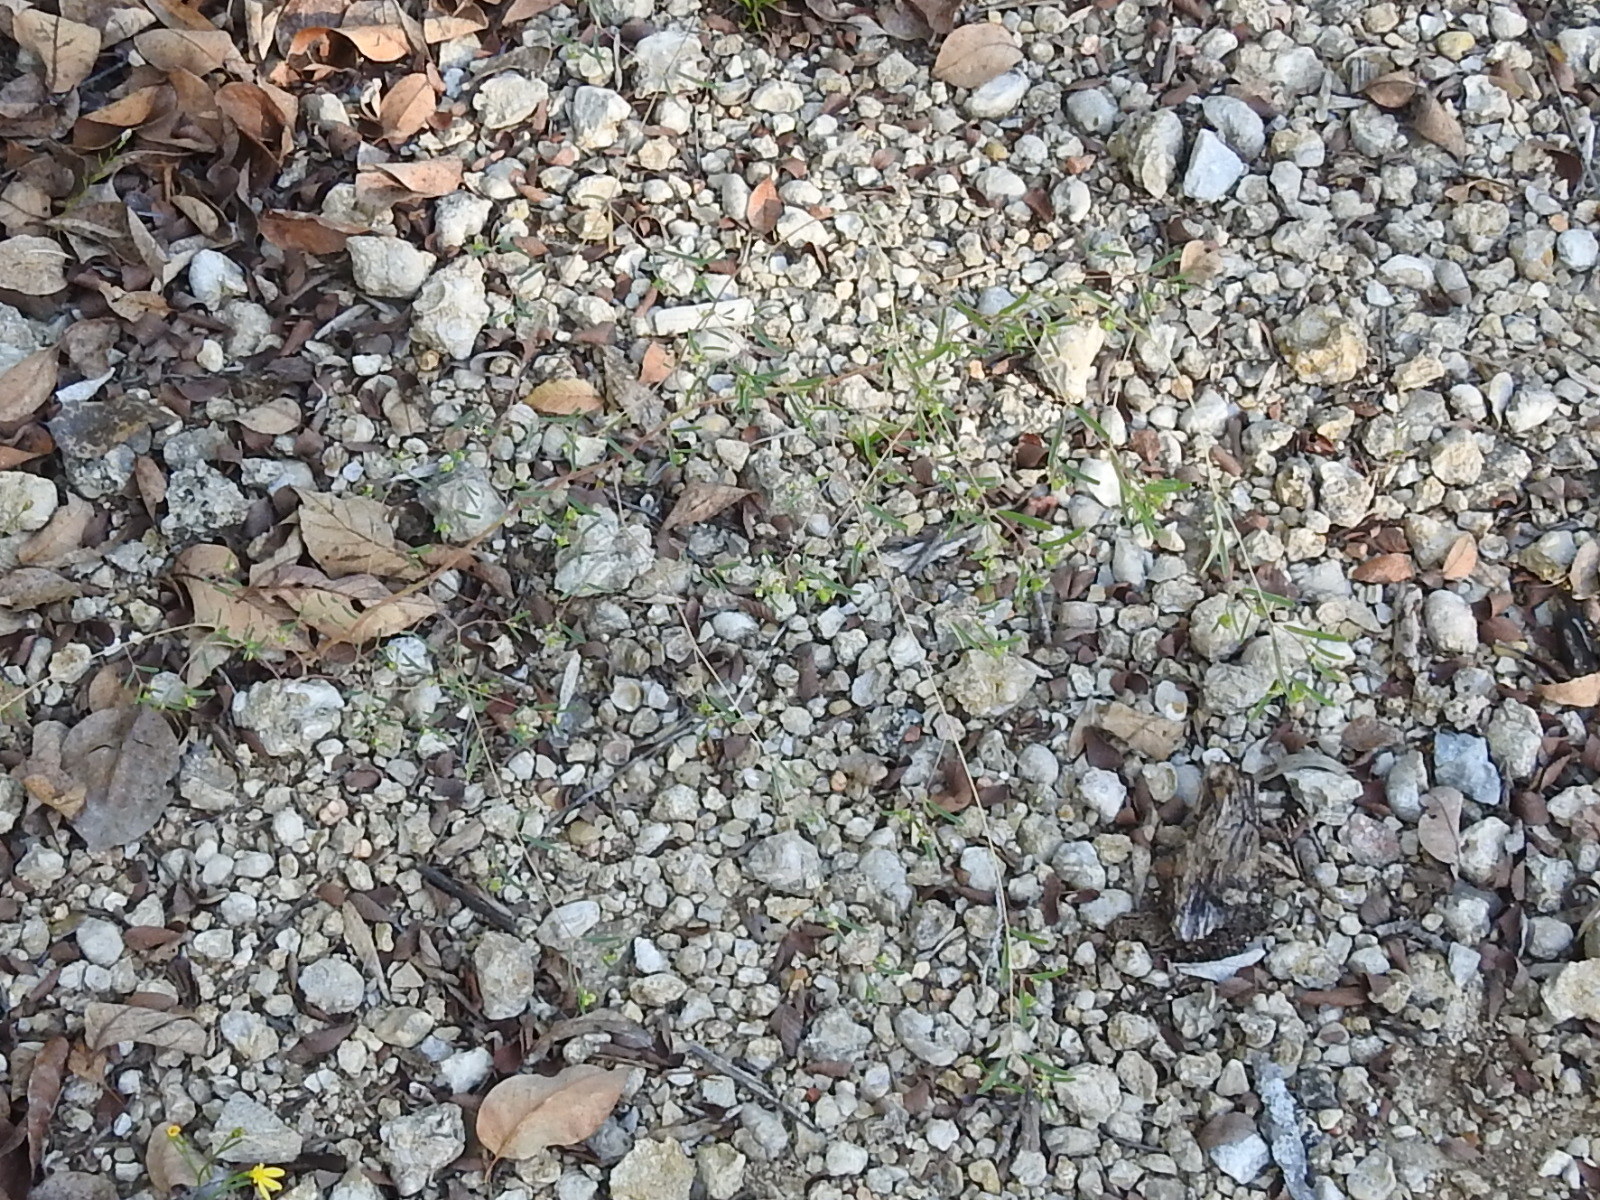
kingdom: Plantae
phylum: Tracheophyta
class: Magnoliopsida
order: Malpighiales
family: Euphorbiaceae
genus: Euphorbia
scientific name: Euphorbia missurica
